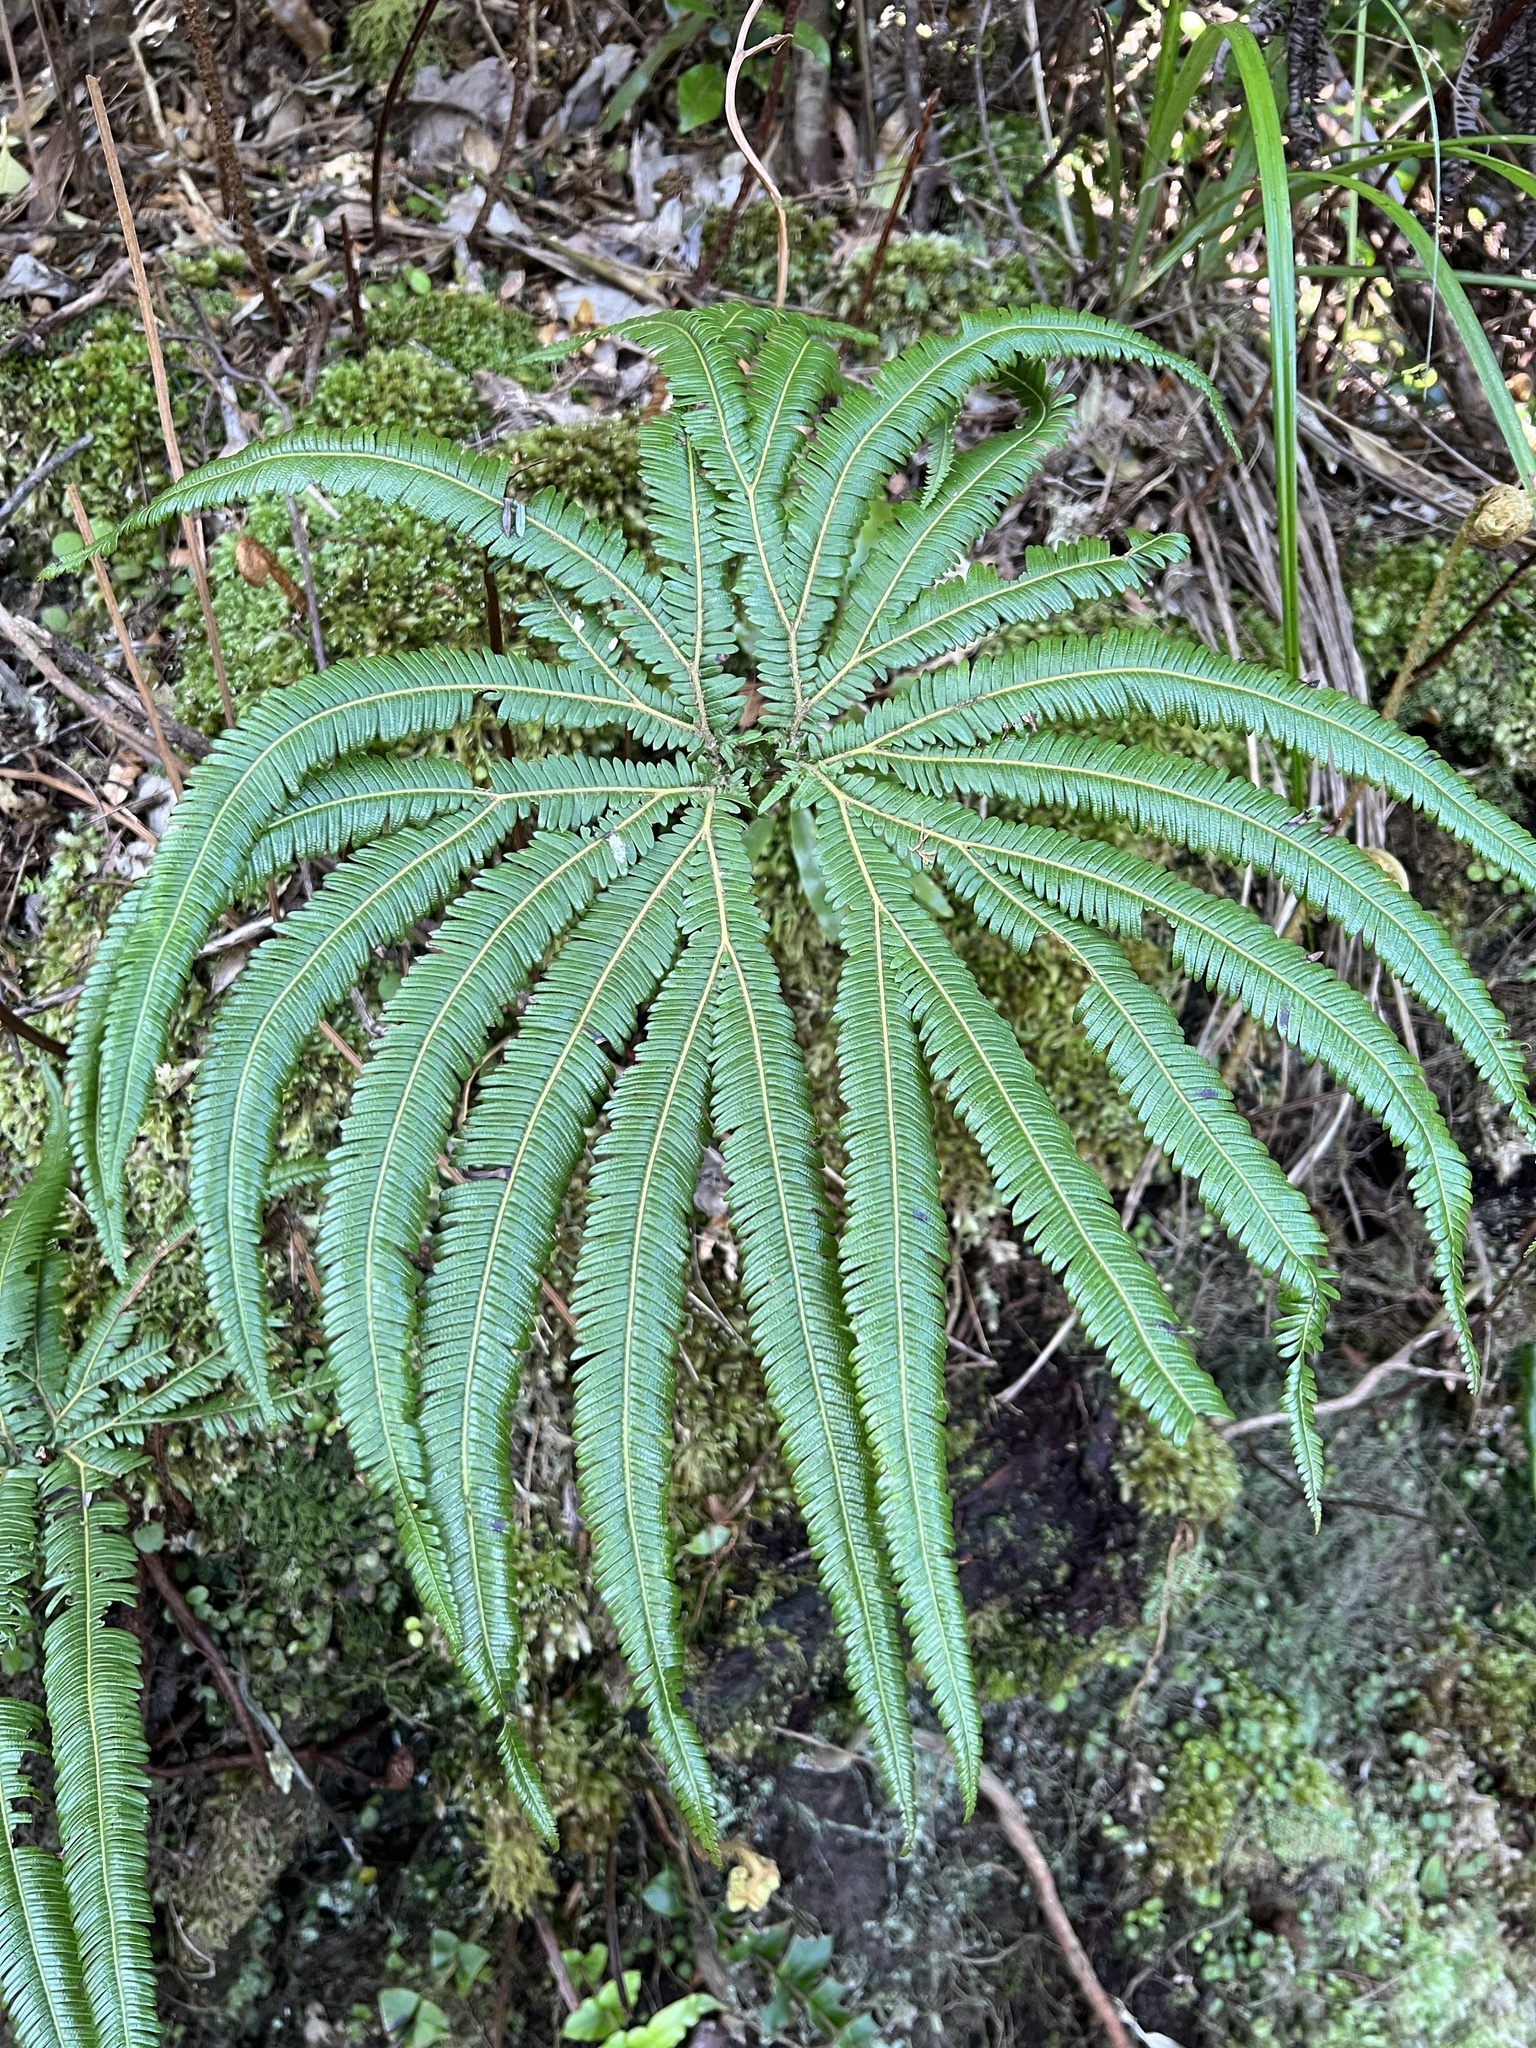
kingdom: Plantae
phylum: Tracheophyta
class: Polypodiopsida
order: Gleicheniales
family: Gleicheniaceae
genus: Sticherus
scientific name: Sticherus cunninghamii
